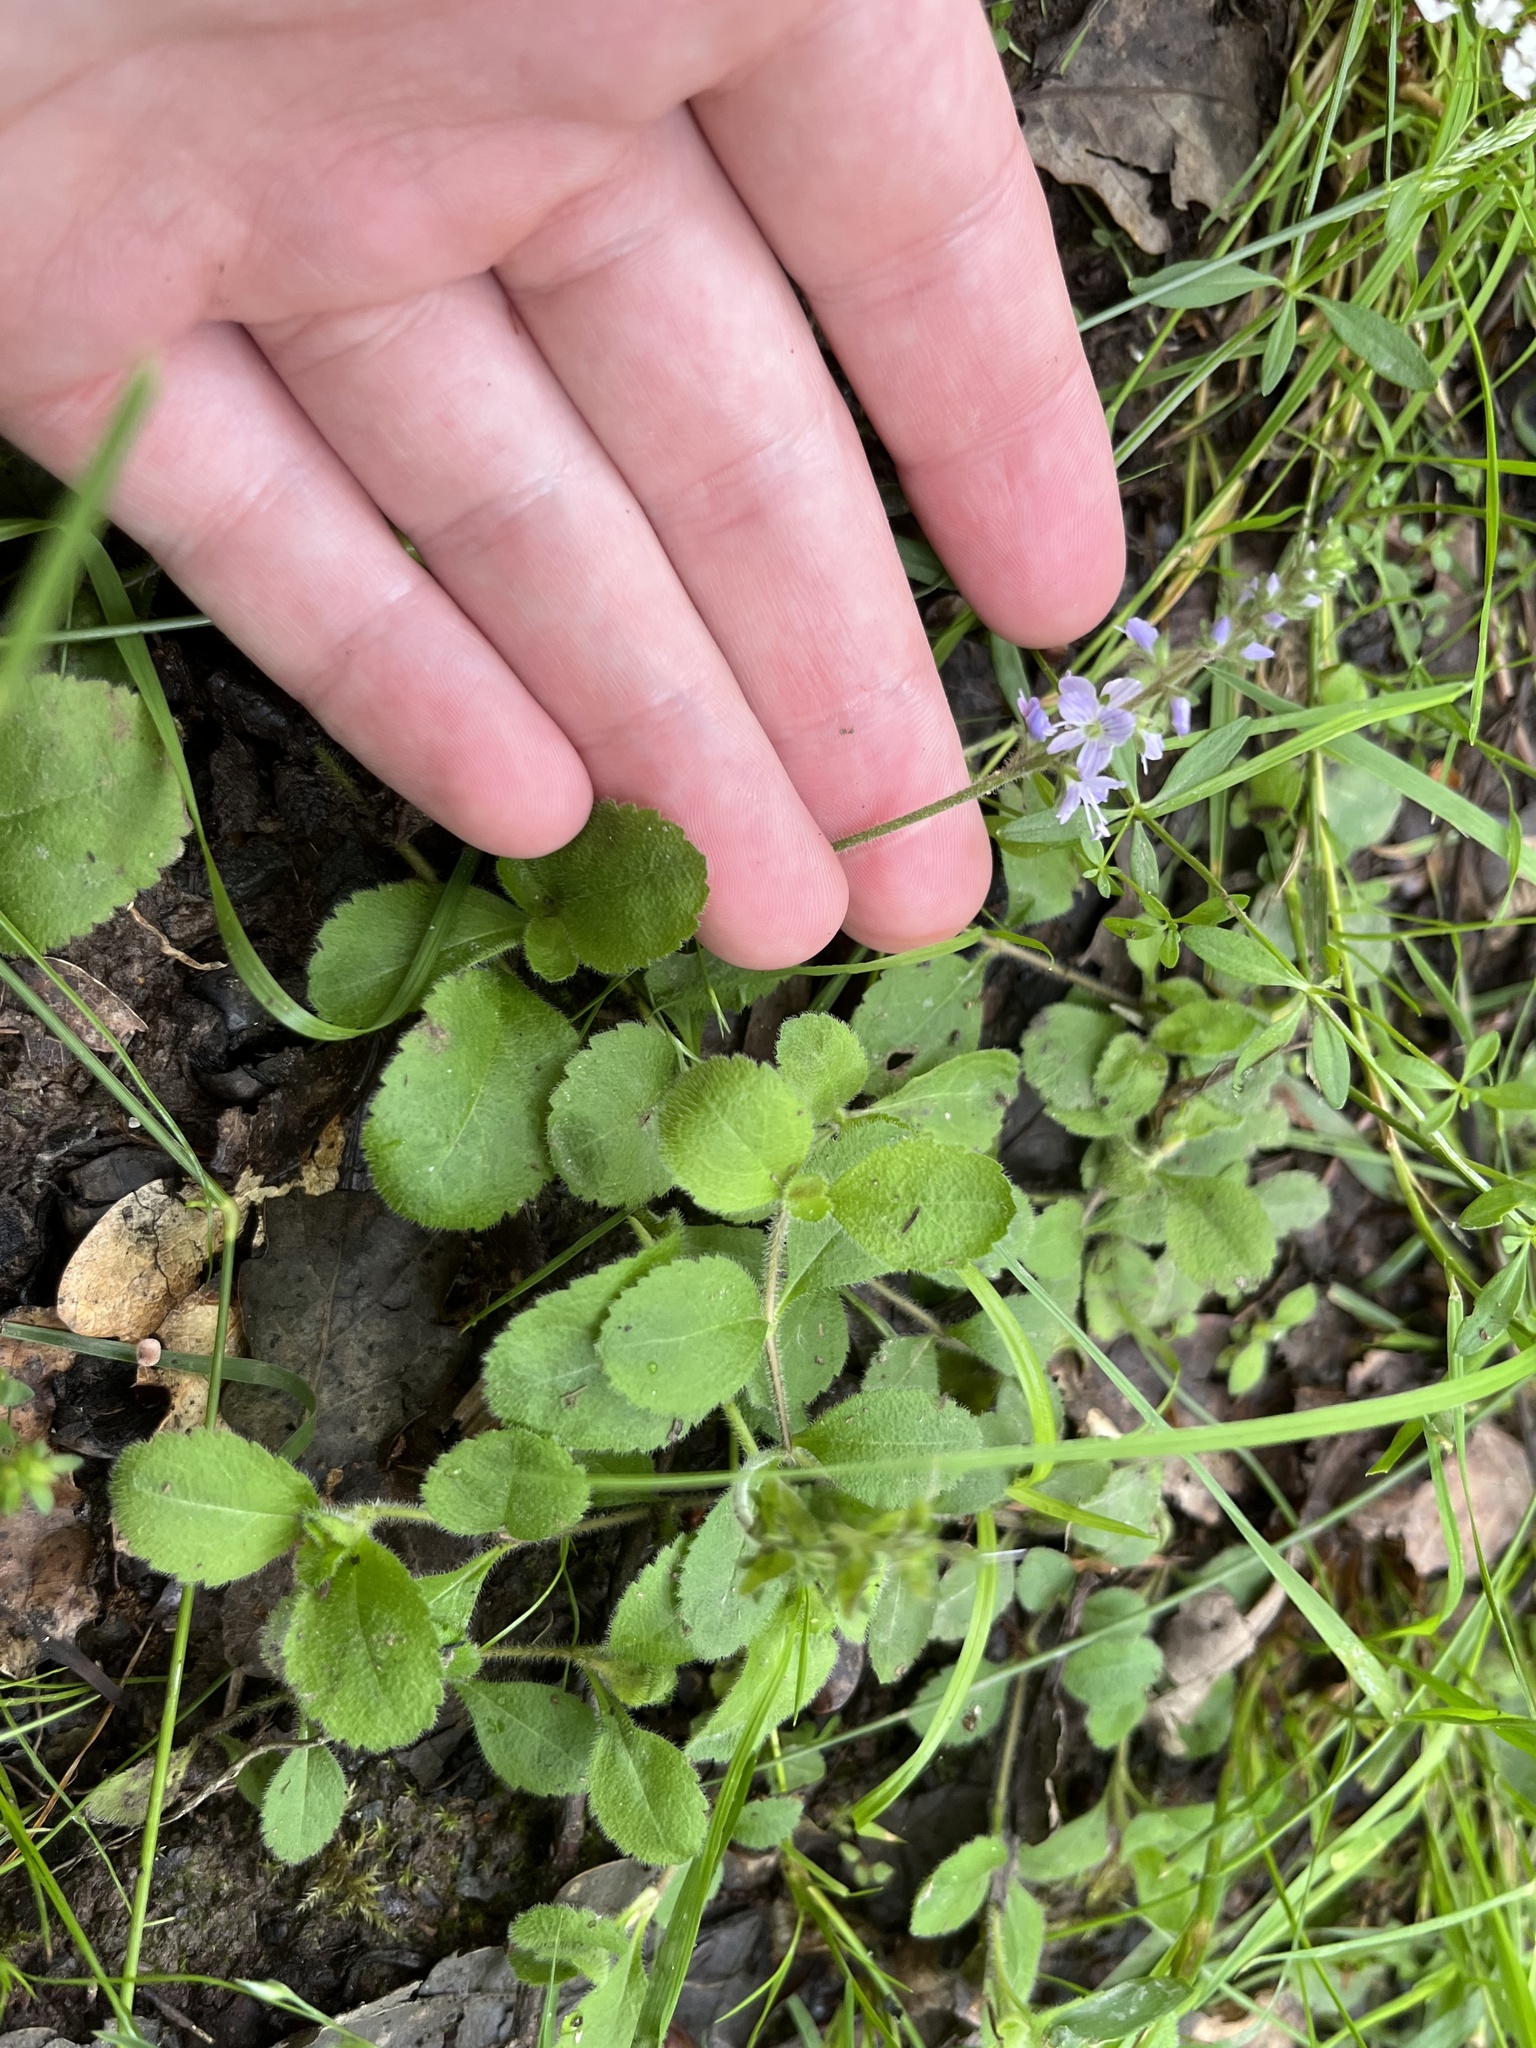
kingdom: Plantae
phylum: Tracheophyta
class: Magnoliopsida
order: Lamiales
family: Plantaginaceae
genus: Veronica
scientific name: Veronica officinalis
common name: Common speedwell
